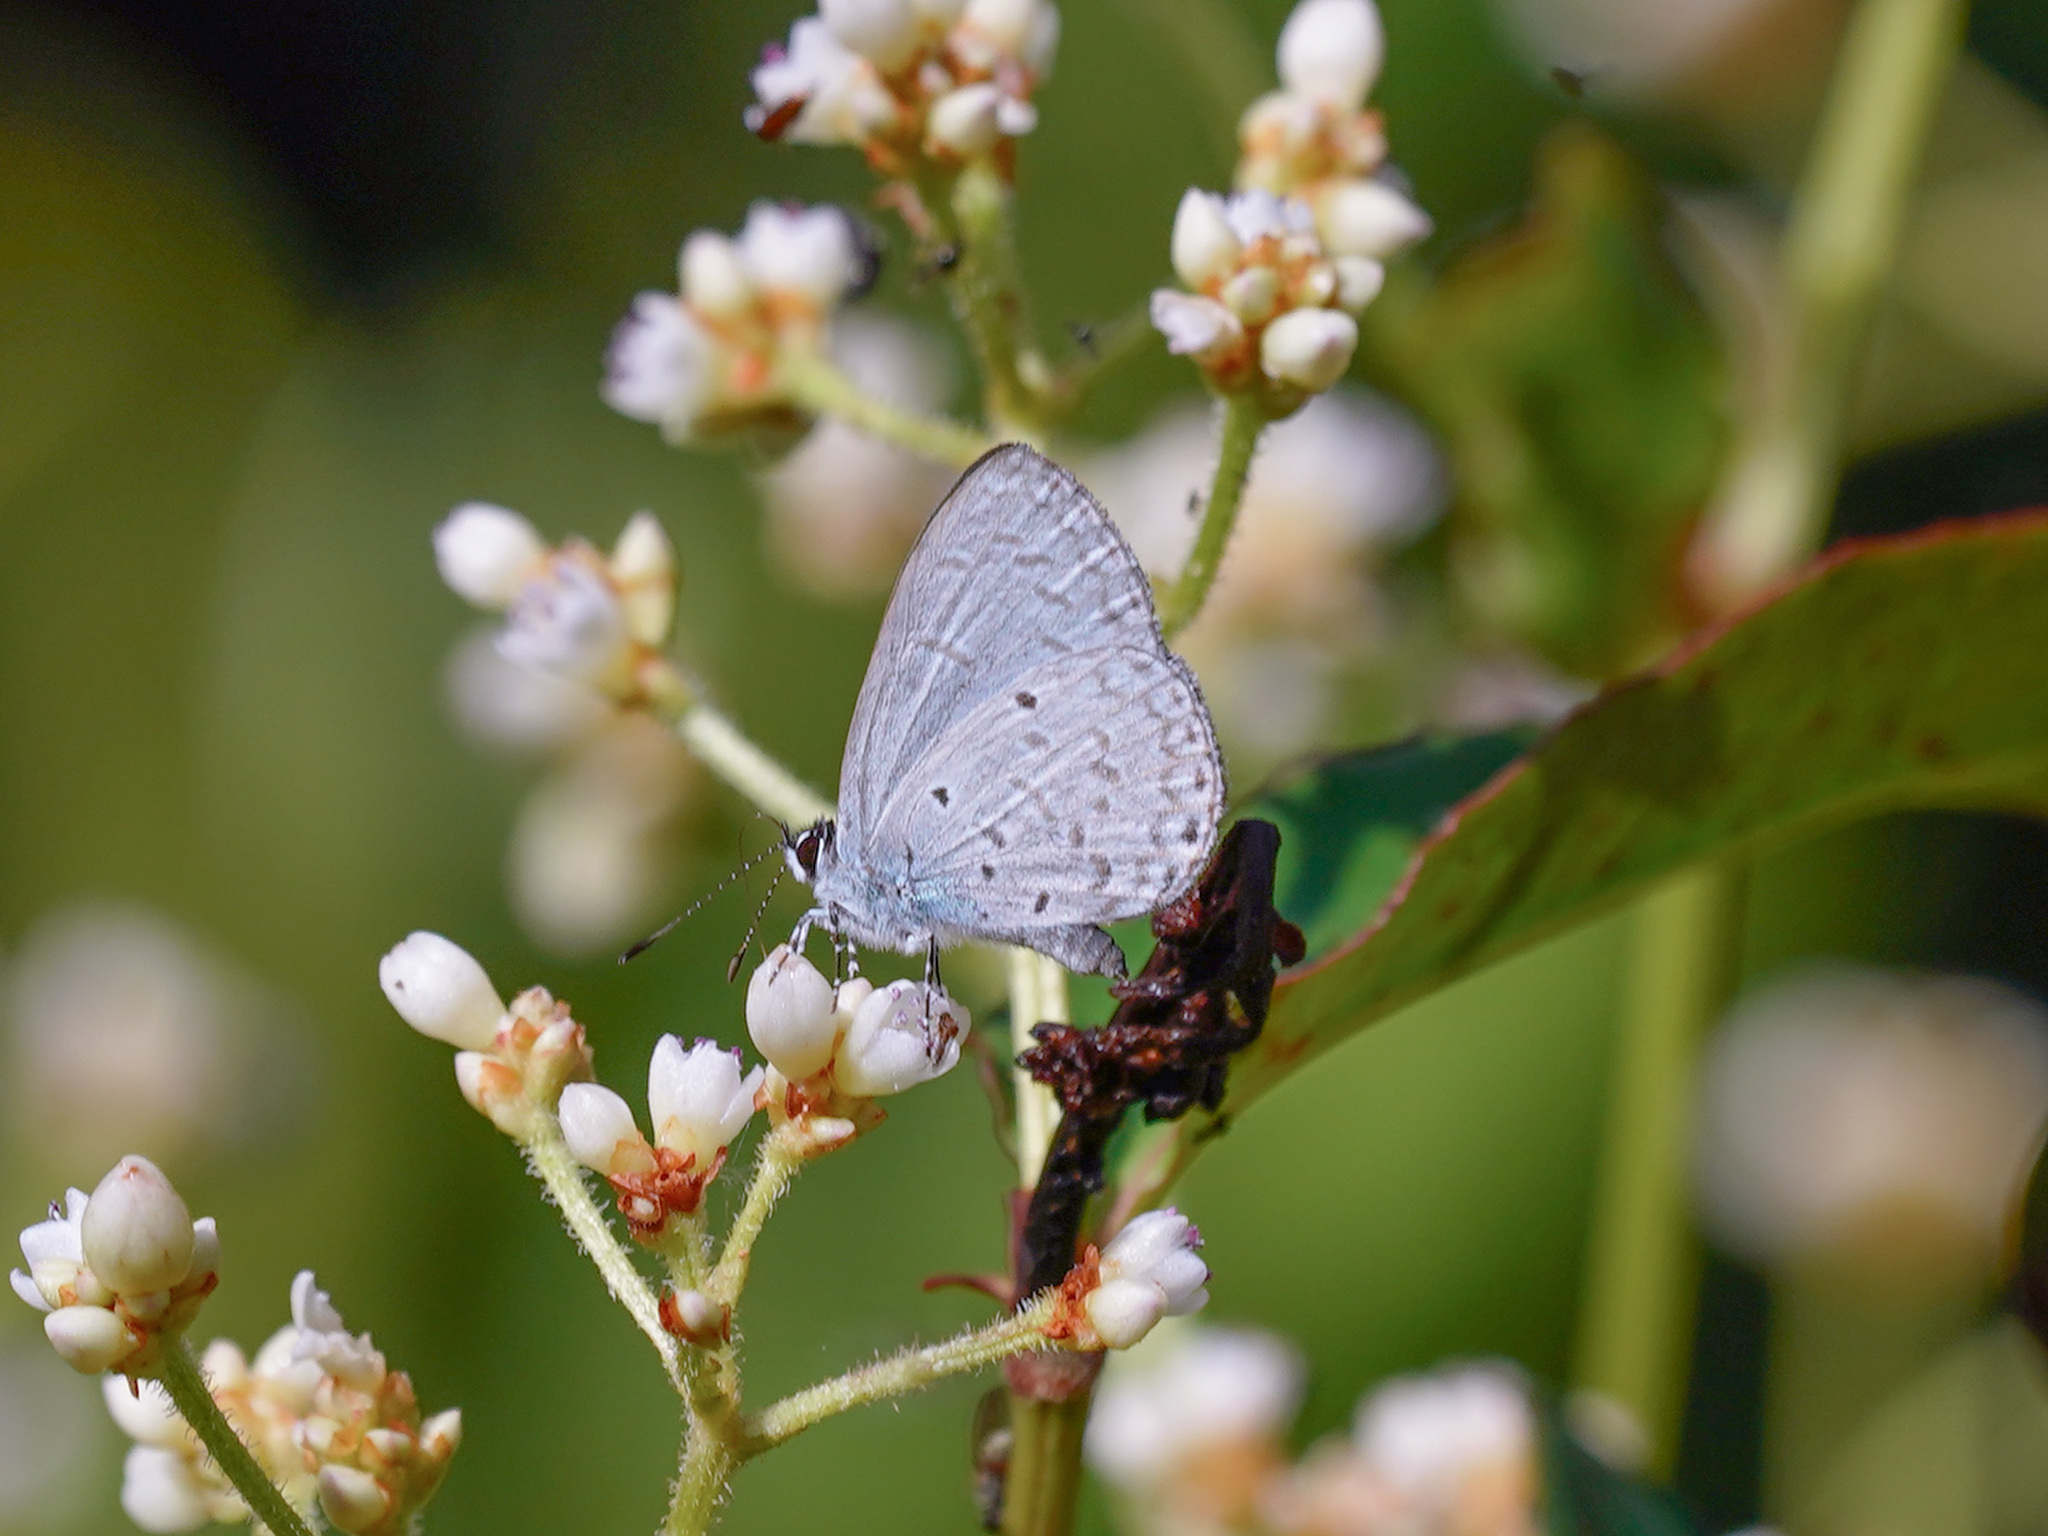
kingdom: Animalia
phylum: Arthropoda
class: Insecta
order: Lepidoptera
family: Lycaenidae
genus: Monodontides
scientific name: Monodontides
